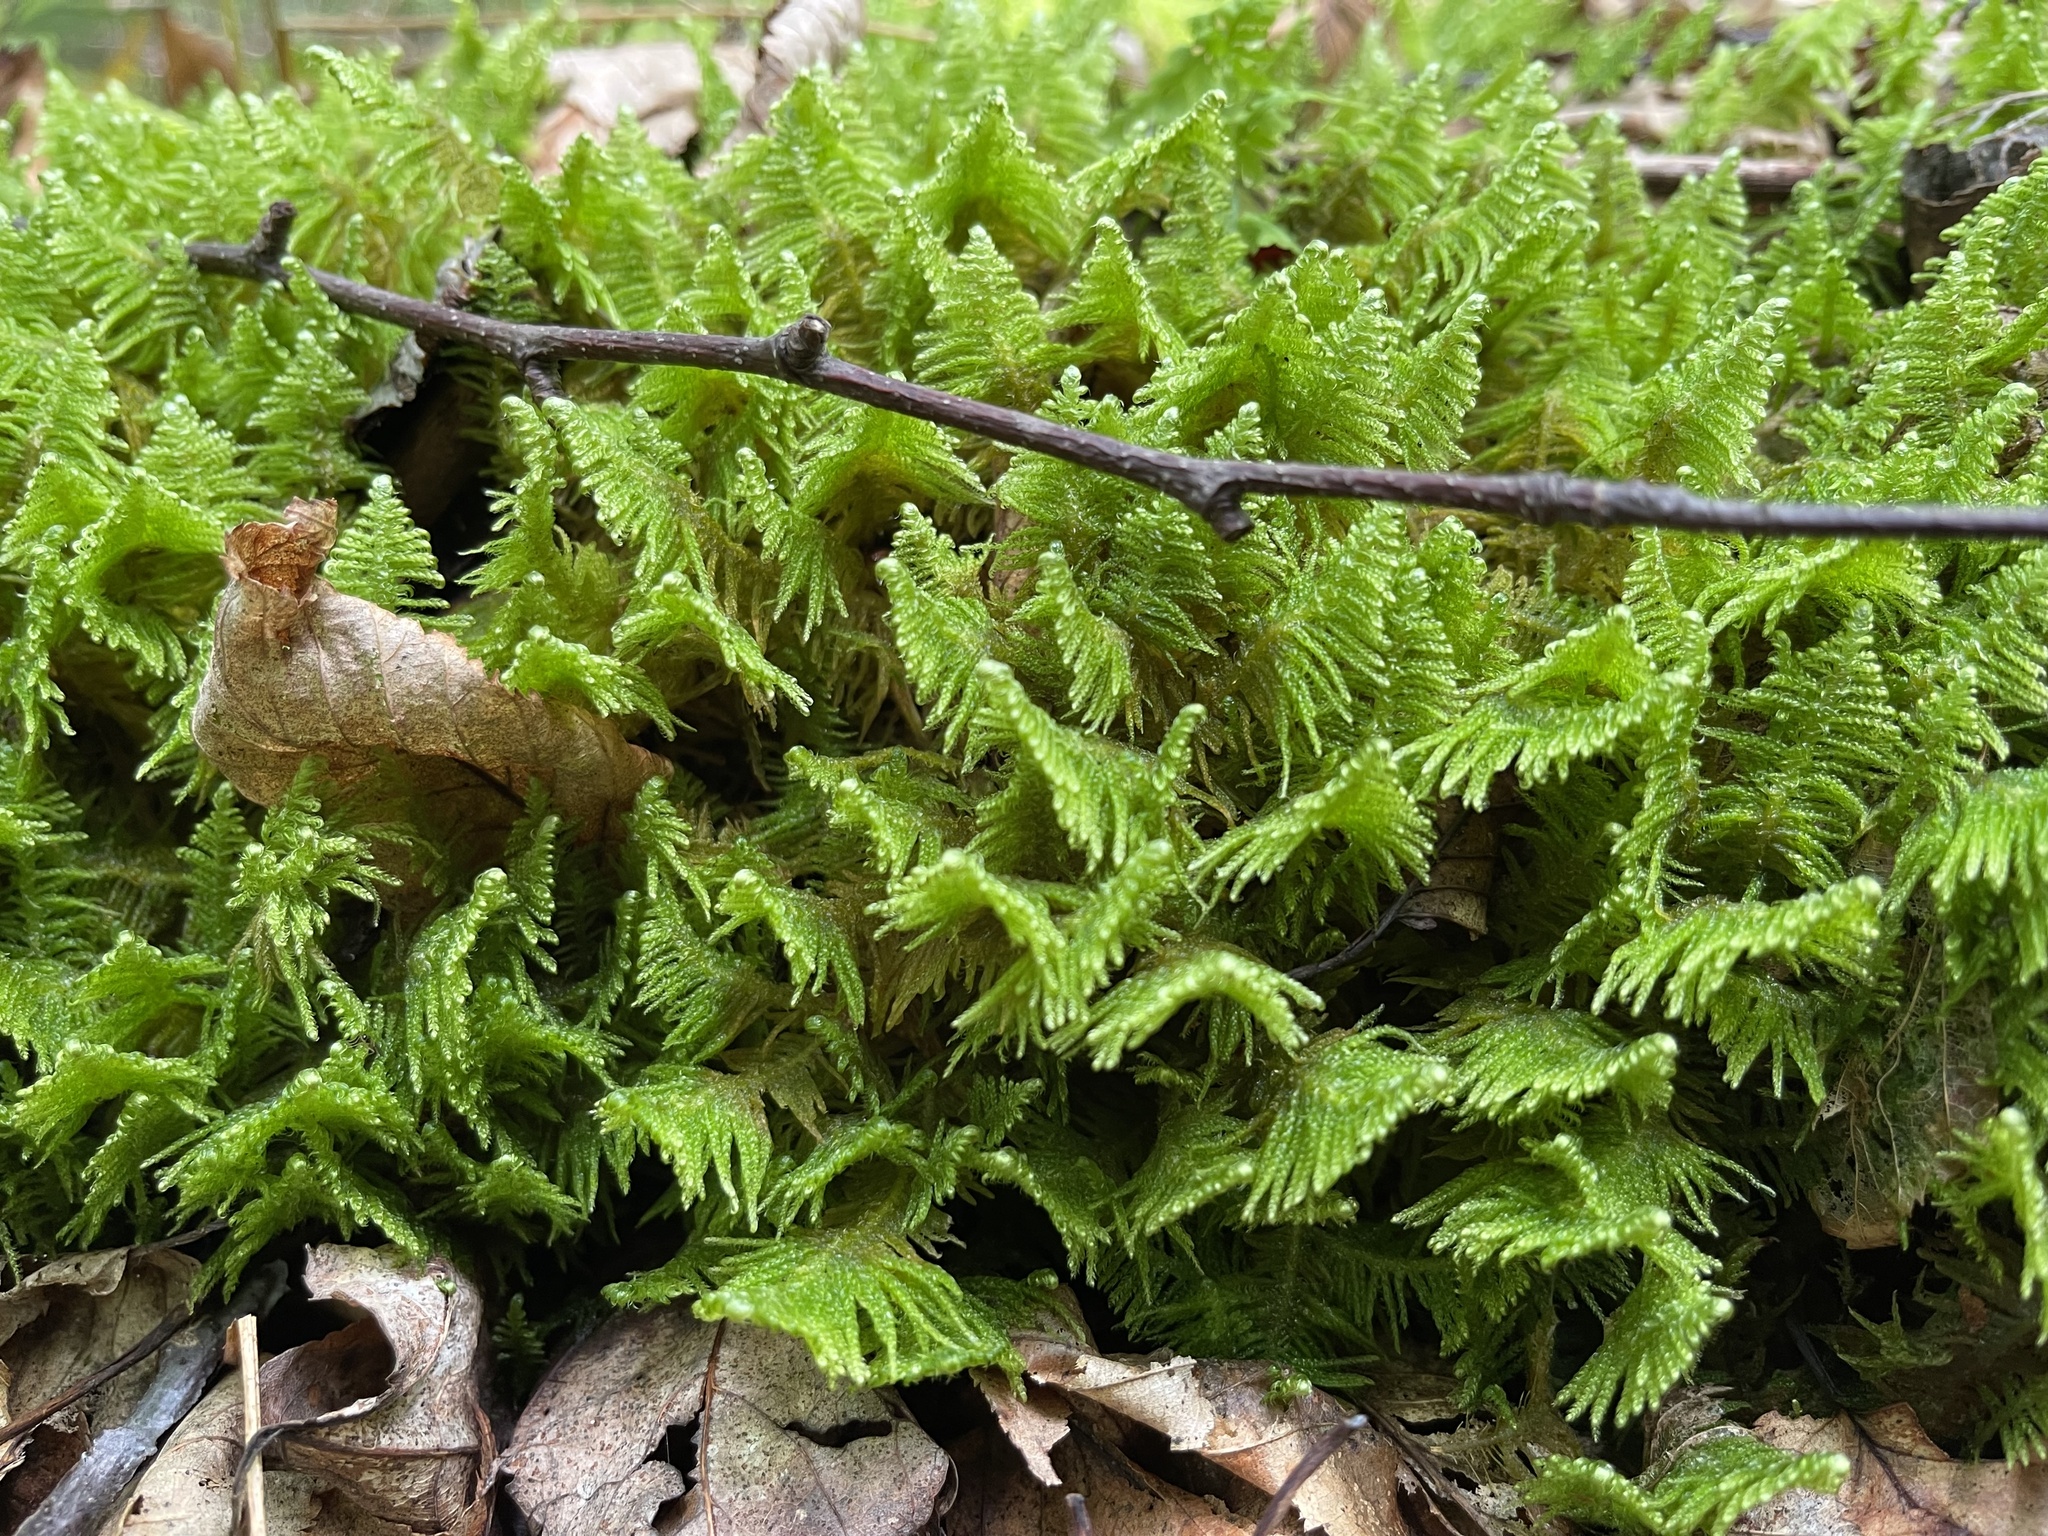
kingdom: Plantae
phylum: Bryophyta
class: Bryopsida
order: Hypnales
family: Pylaisiaceae
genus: Ptilium
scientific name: Ptilium crista-castrensis
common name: Knight's plume moss
